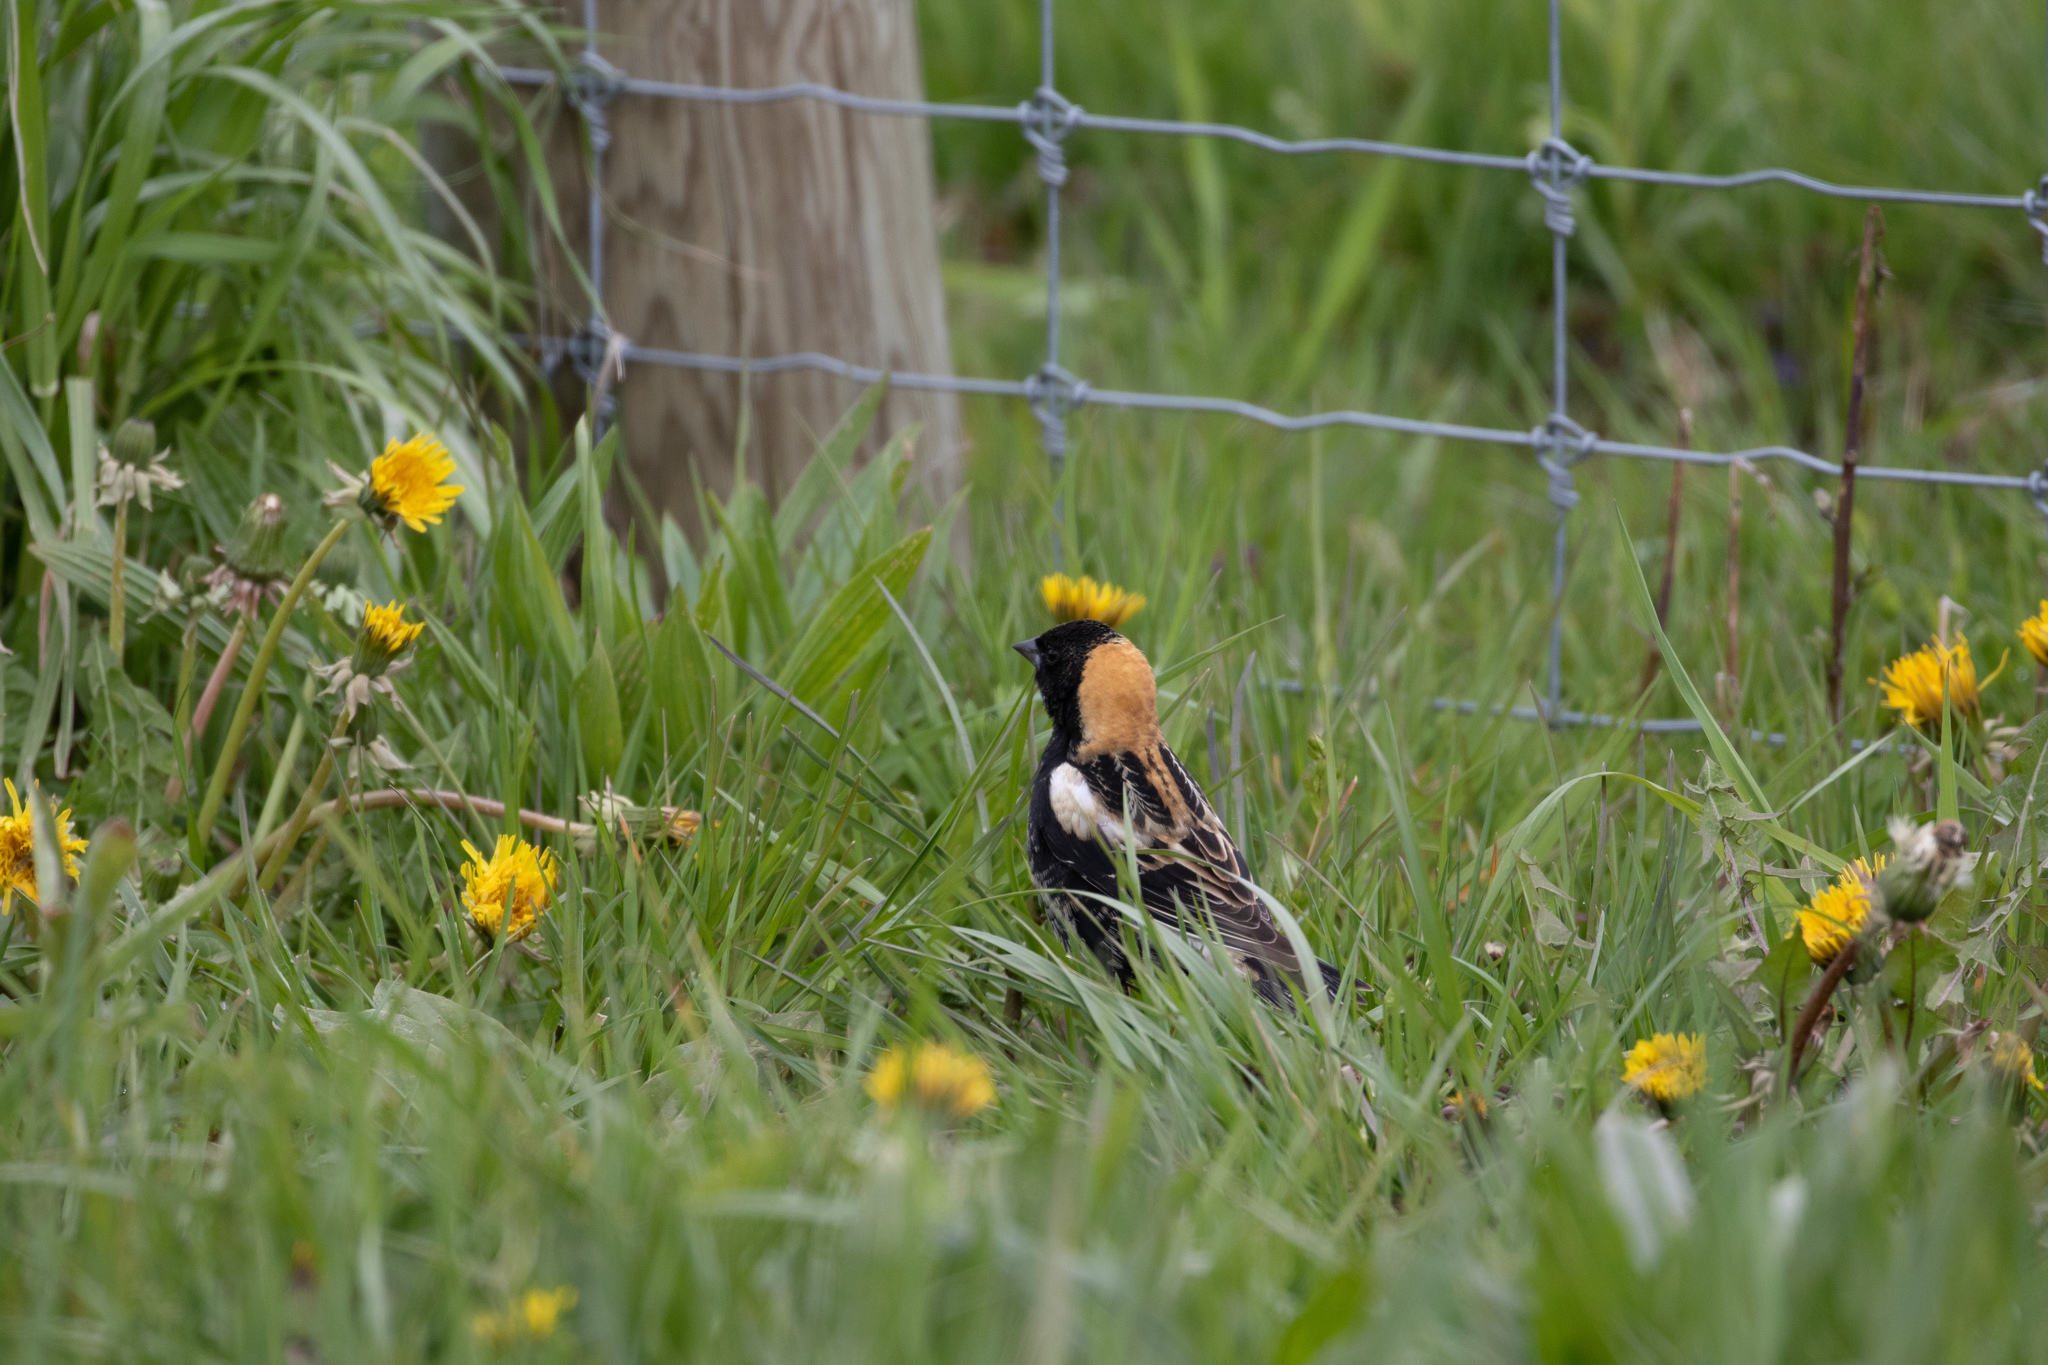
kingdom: Animalia
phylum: Chordata
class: Aves
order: Passeriformes
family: Icteridae
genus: Dolichonyx
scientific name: Dolichonyx oryzivorus
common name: Bobolink
